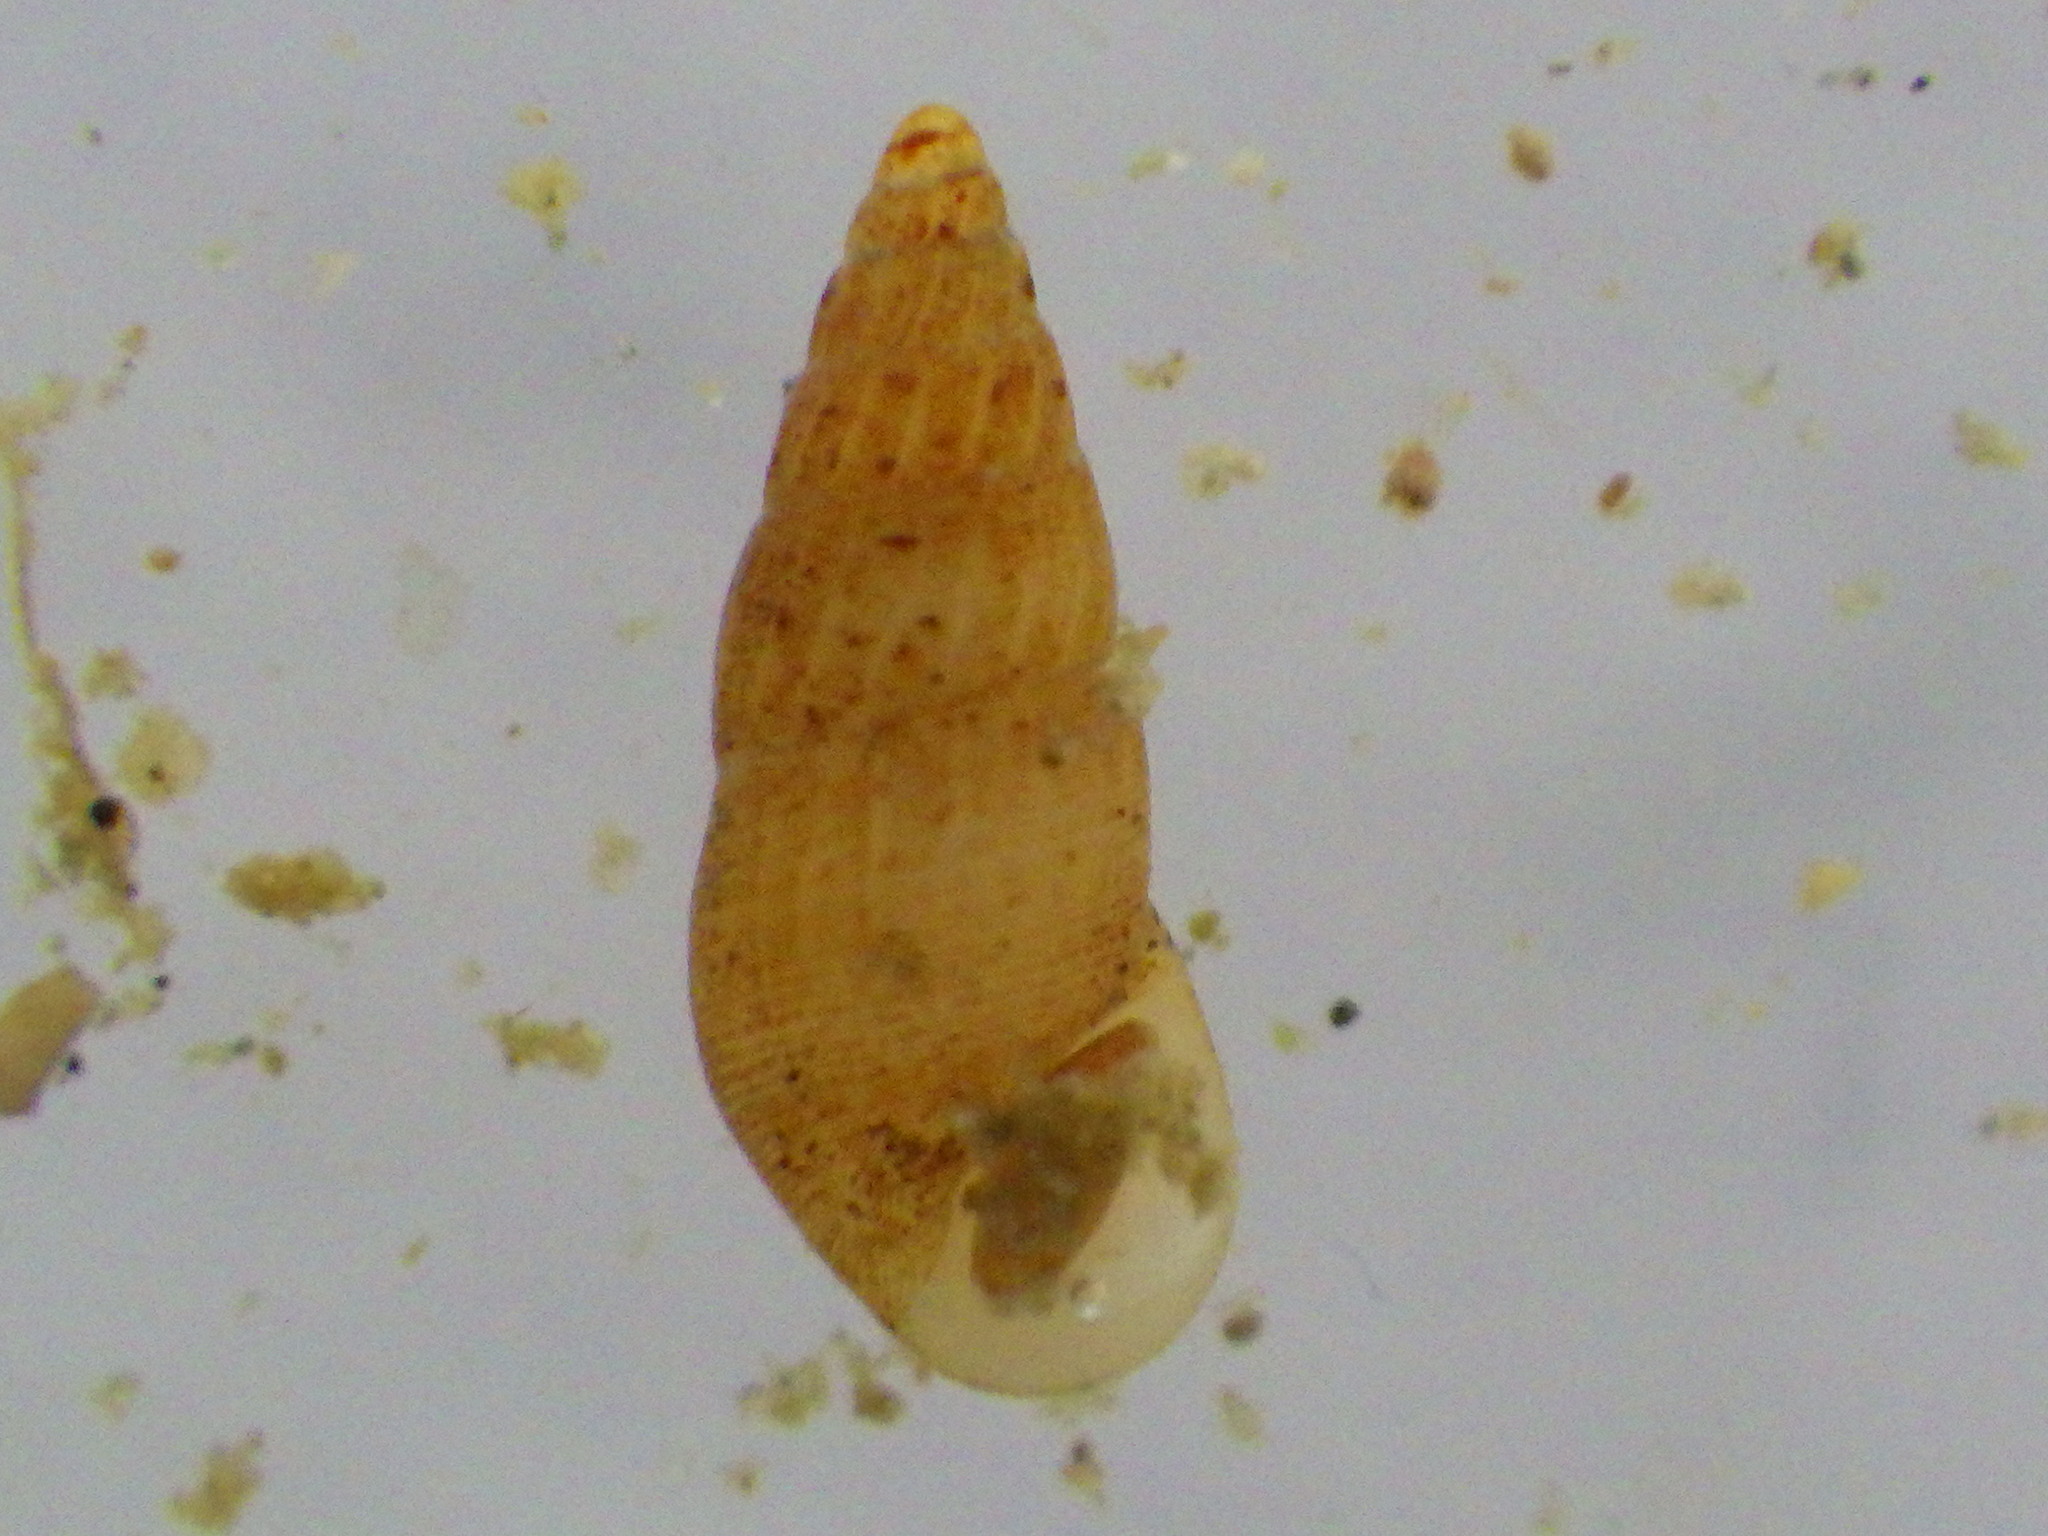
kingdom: Animalia
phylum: Mollusca
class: Gastropoda
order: Littorinimorpha
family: Rissoinidae
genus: Rissoina
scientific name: Rissoina chathamensis
